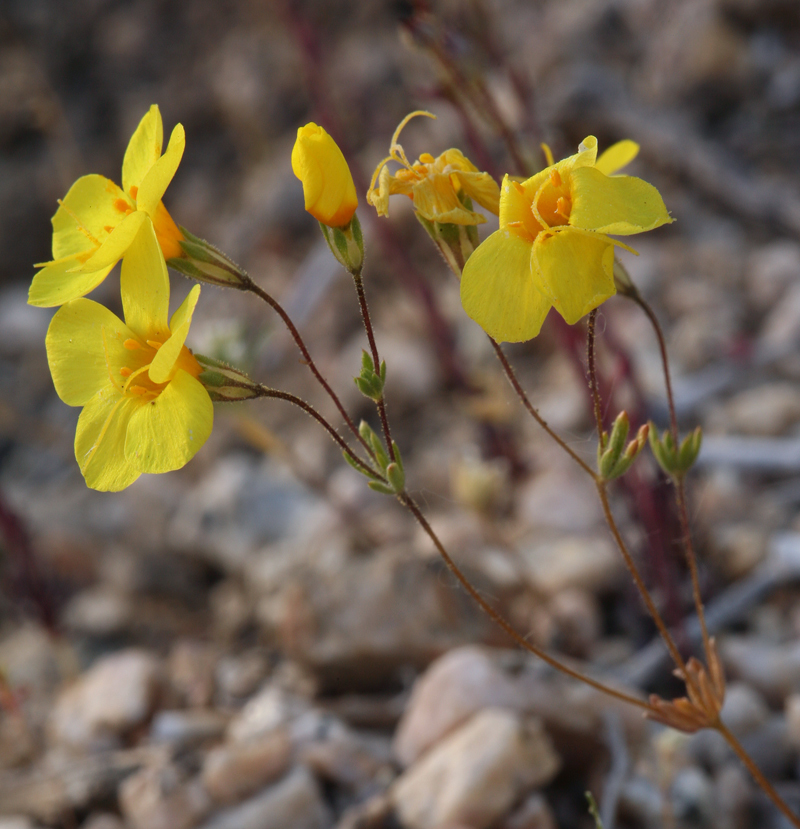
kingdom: Plantae
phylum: Tracheophyta
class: Magnoliopsida
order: Ericales
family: Polemoniaceae
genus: Leptosiphon
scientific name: Leptosiphon chrysanthus
